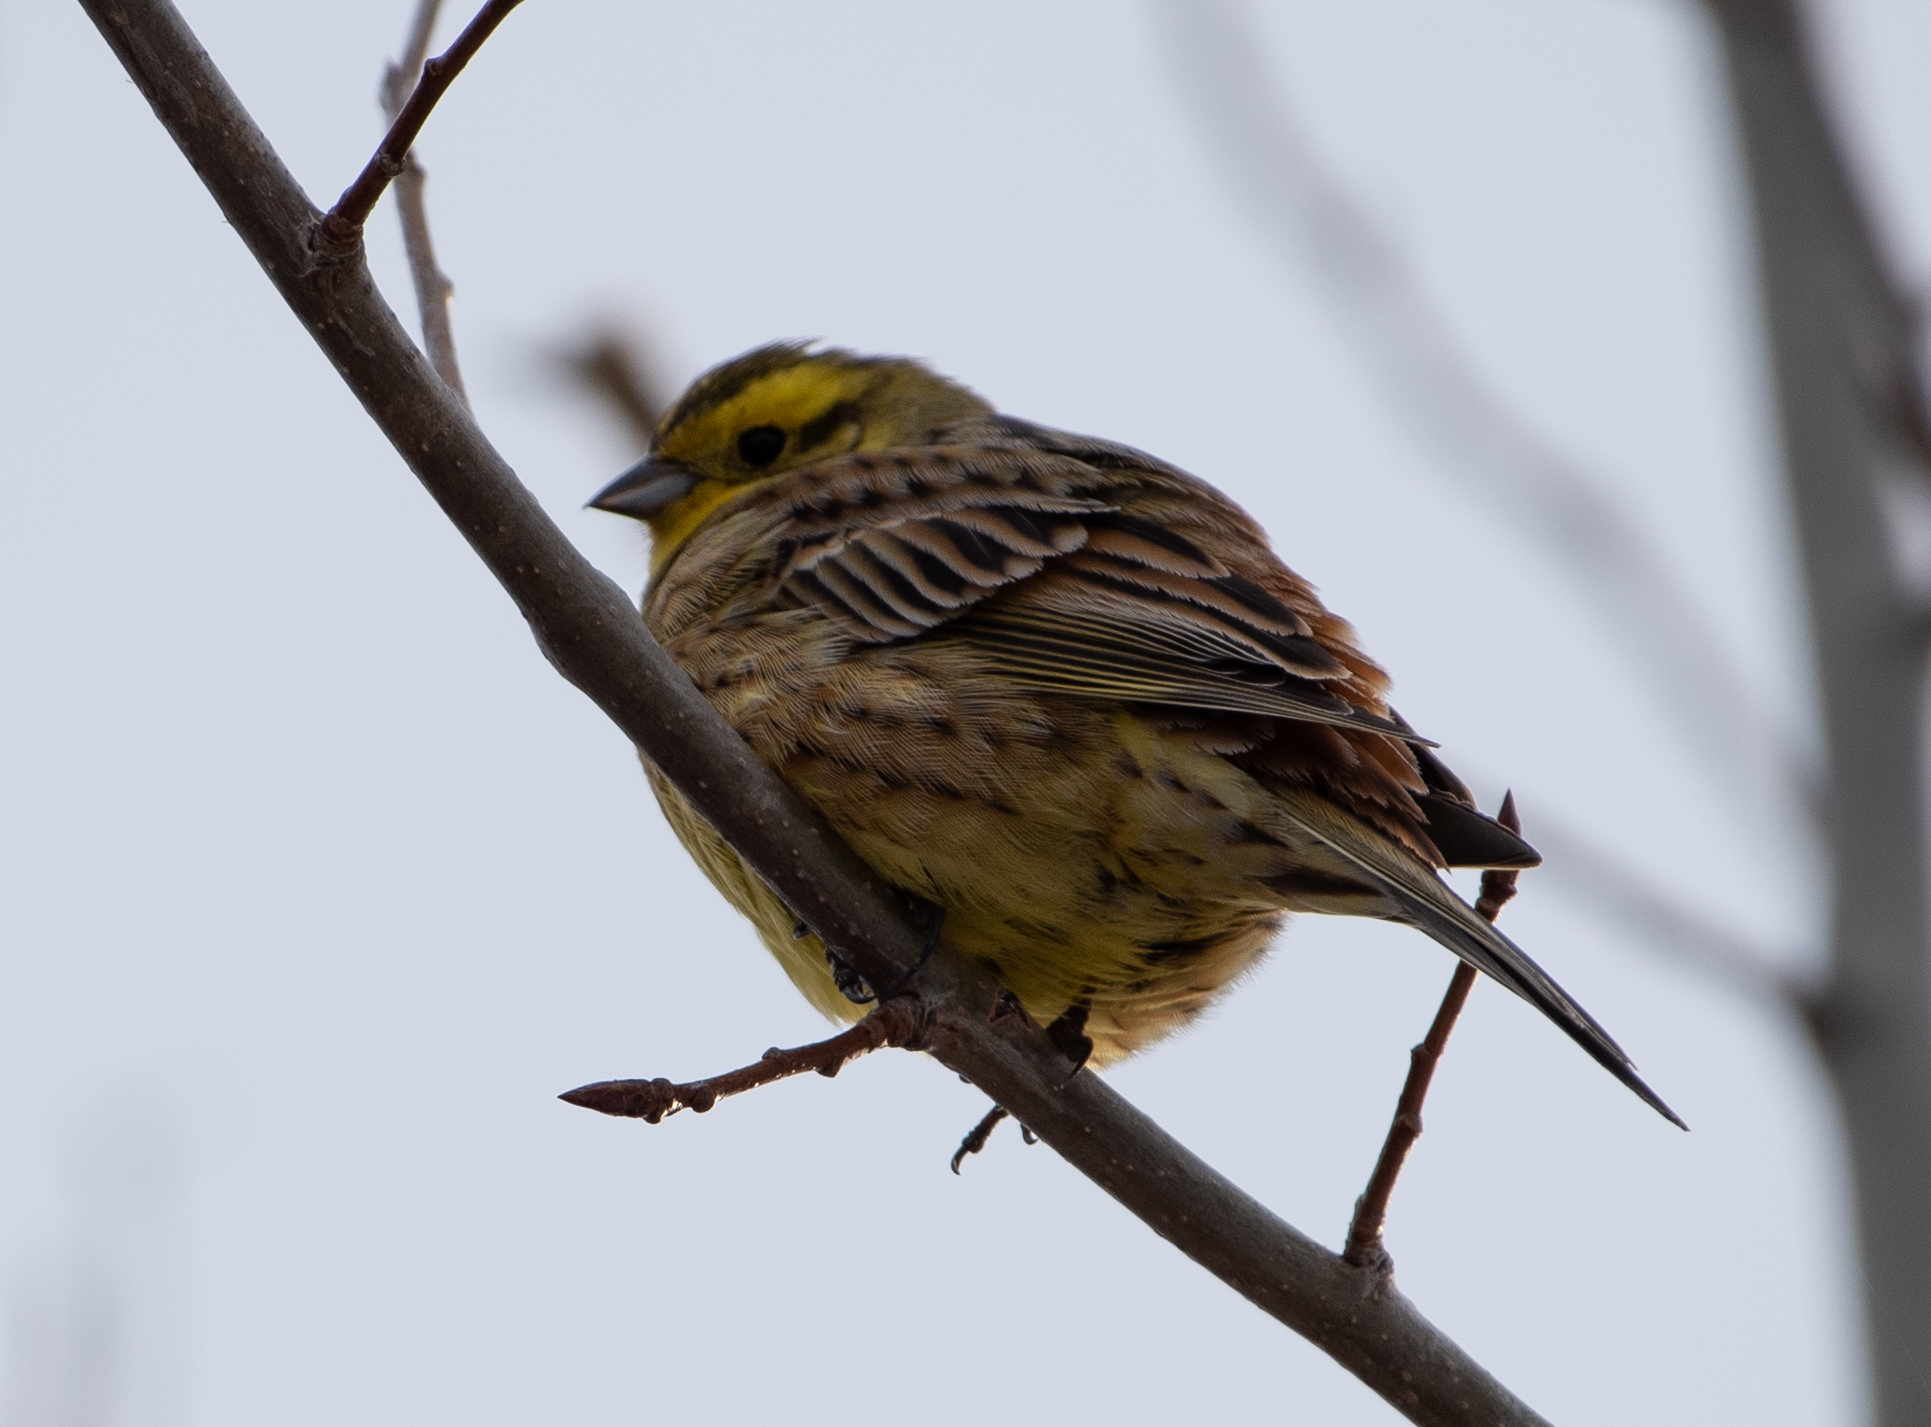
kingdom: Animalia
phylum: Chordata
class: Aves
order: Passeriformes
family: Emberizidae
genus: Emberiza
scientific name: Emberiza citrinella
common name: Yellowhammer
